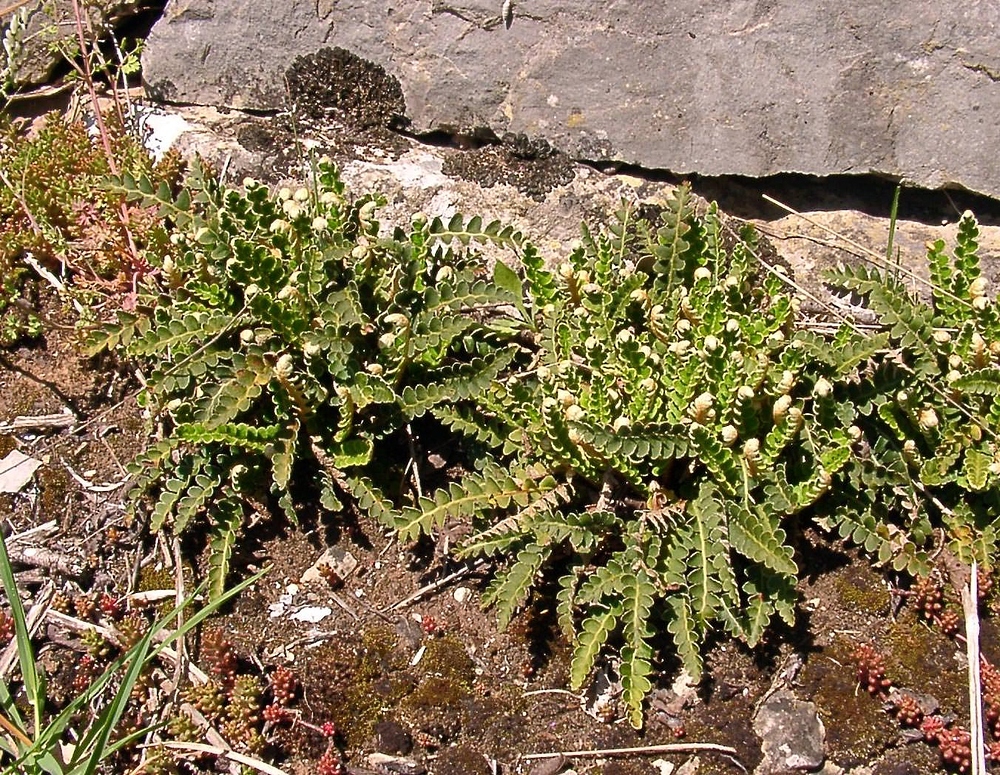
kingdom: Plantae
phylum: Tracheophyta
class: Polypodiopsida
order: Polypodiales
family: Aspleniaceae
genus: Asplenium
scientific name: Asplenium ceterach
